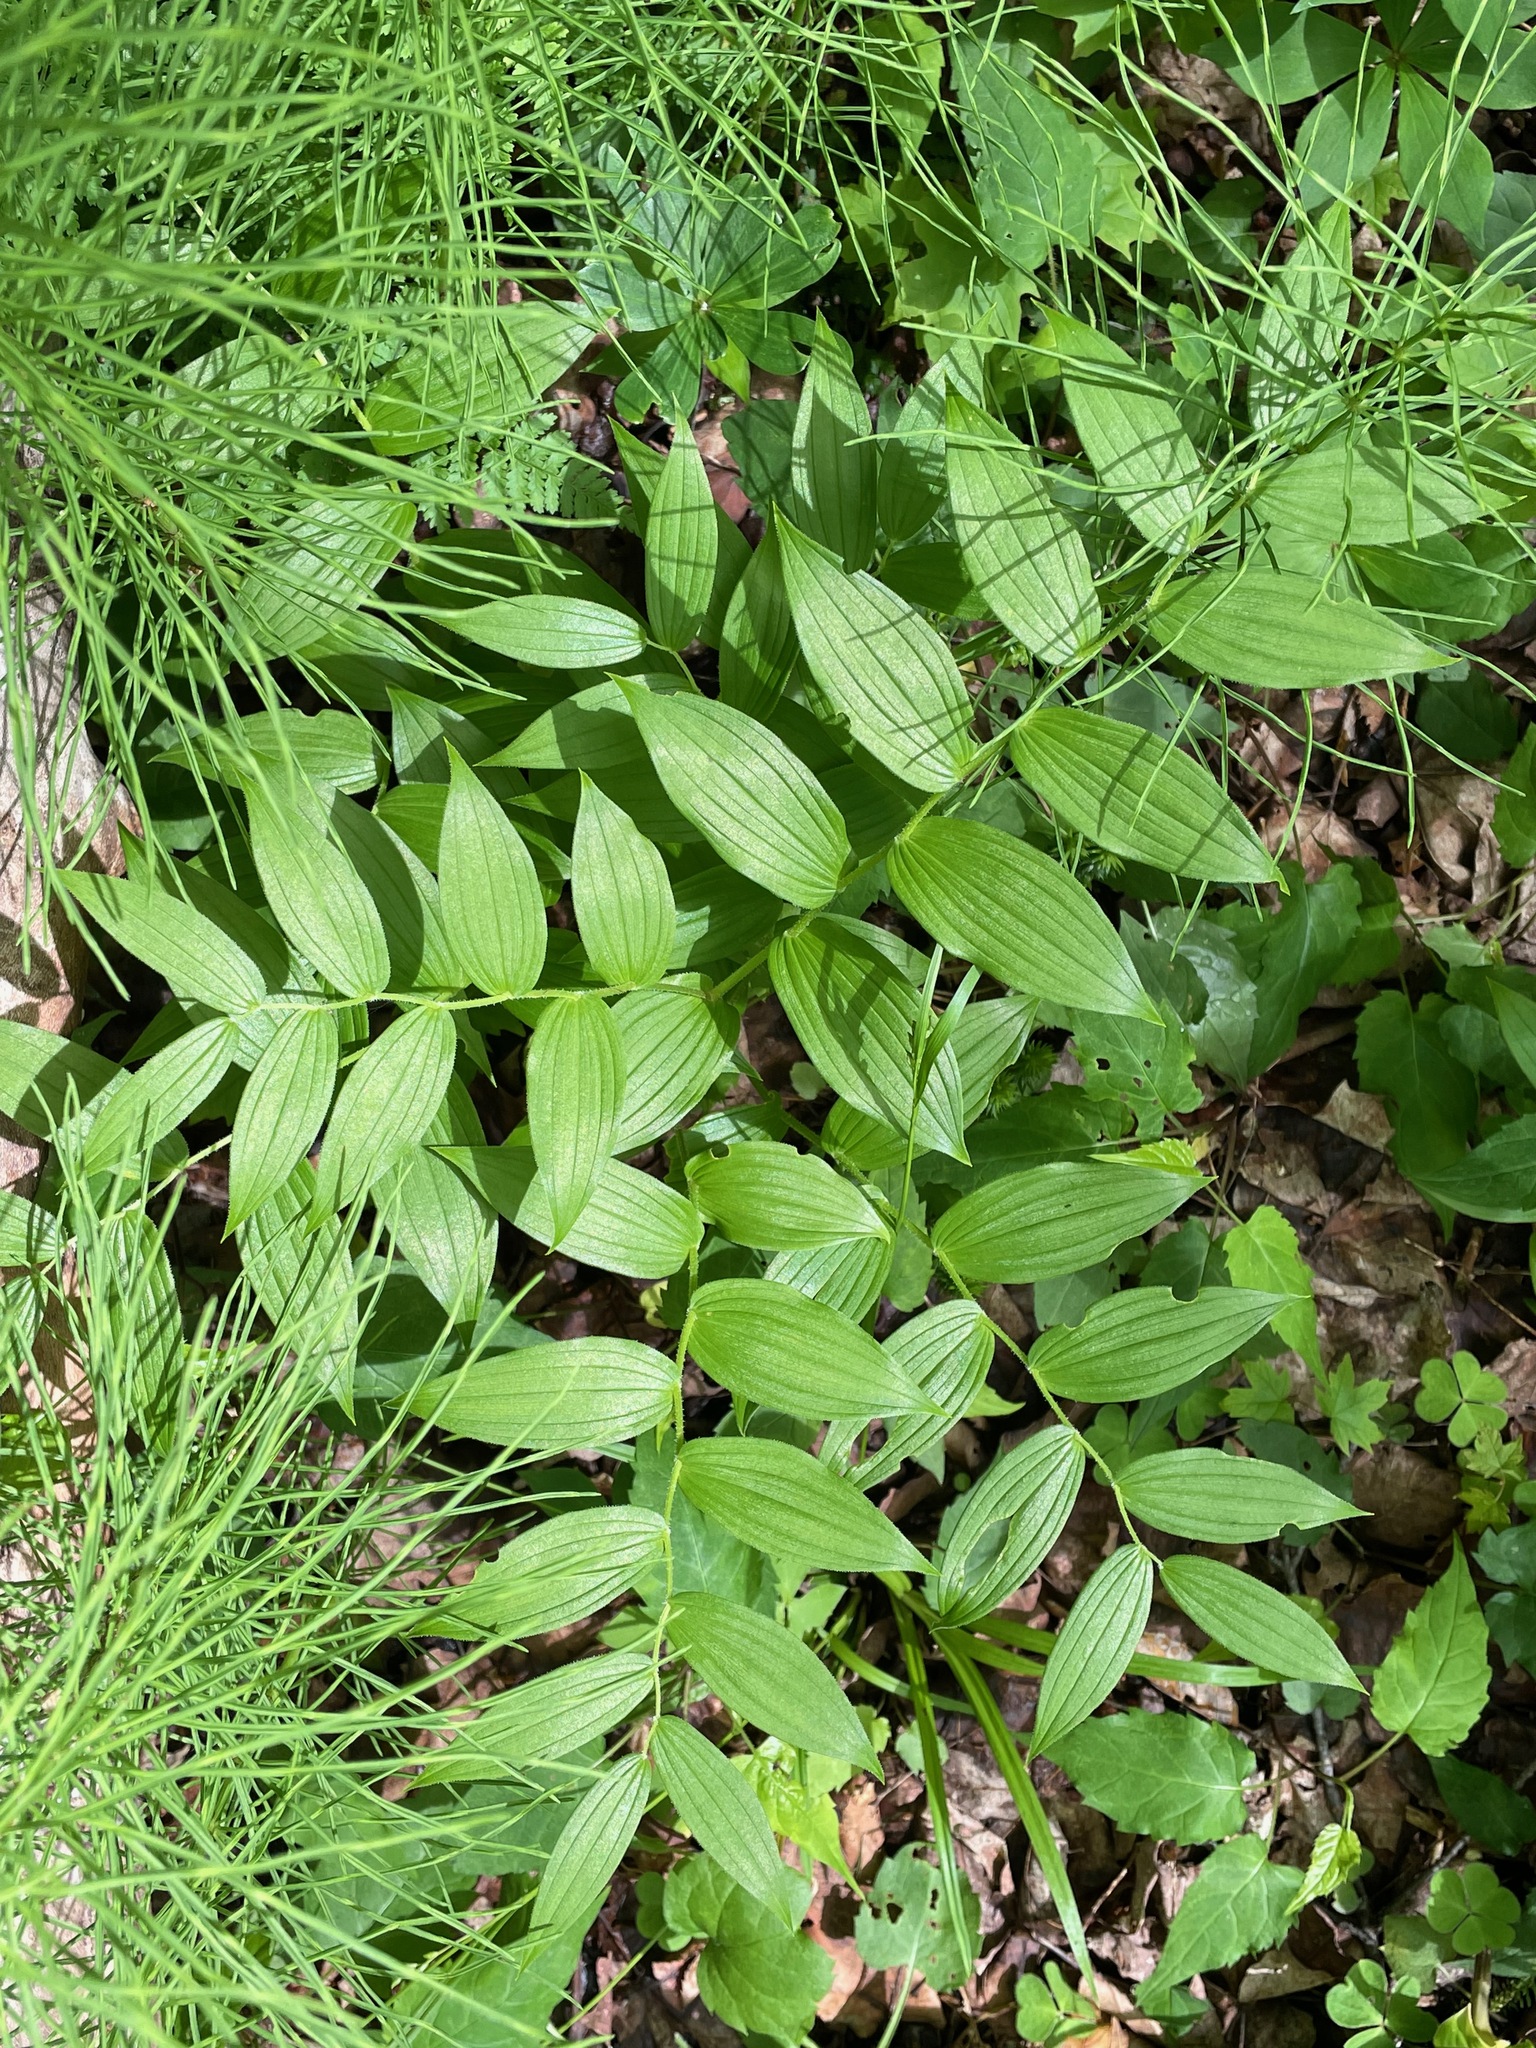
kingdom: Plantae
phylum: Tracheophyta
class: Liliopsida
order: Liliales
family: Liliaceae
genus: Streptopus
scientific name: Streptopus lanceolatus
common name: Rose mandarin
